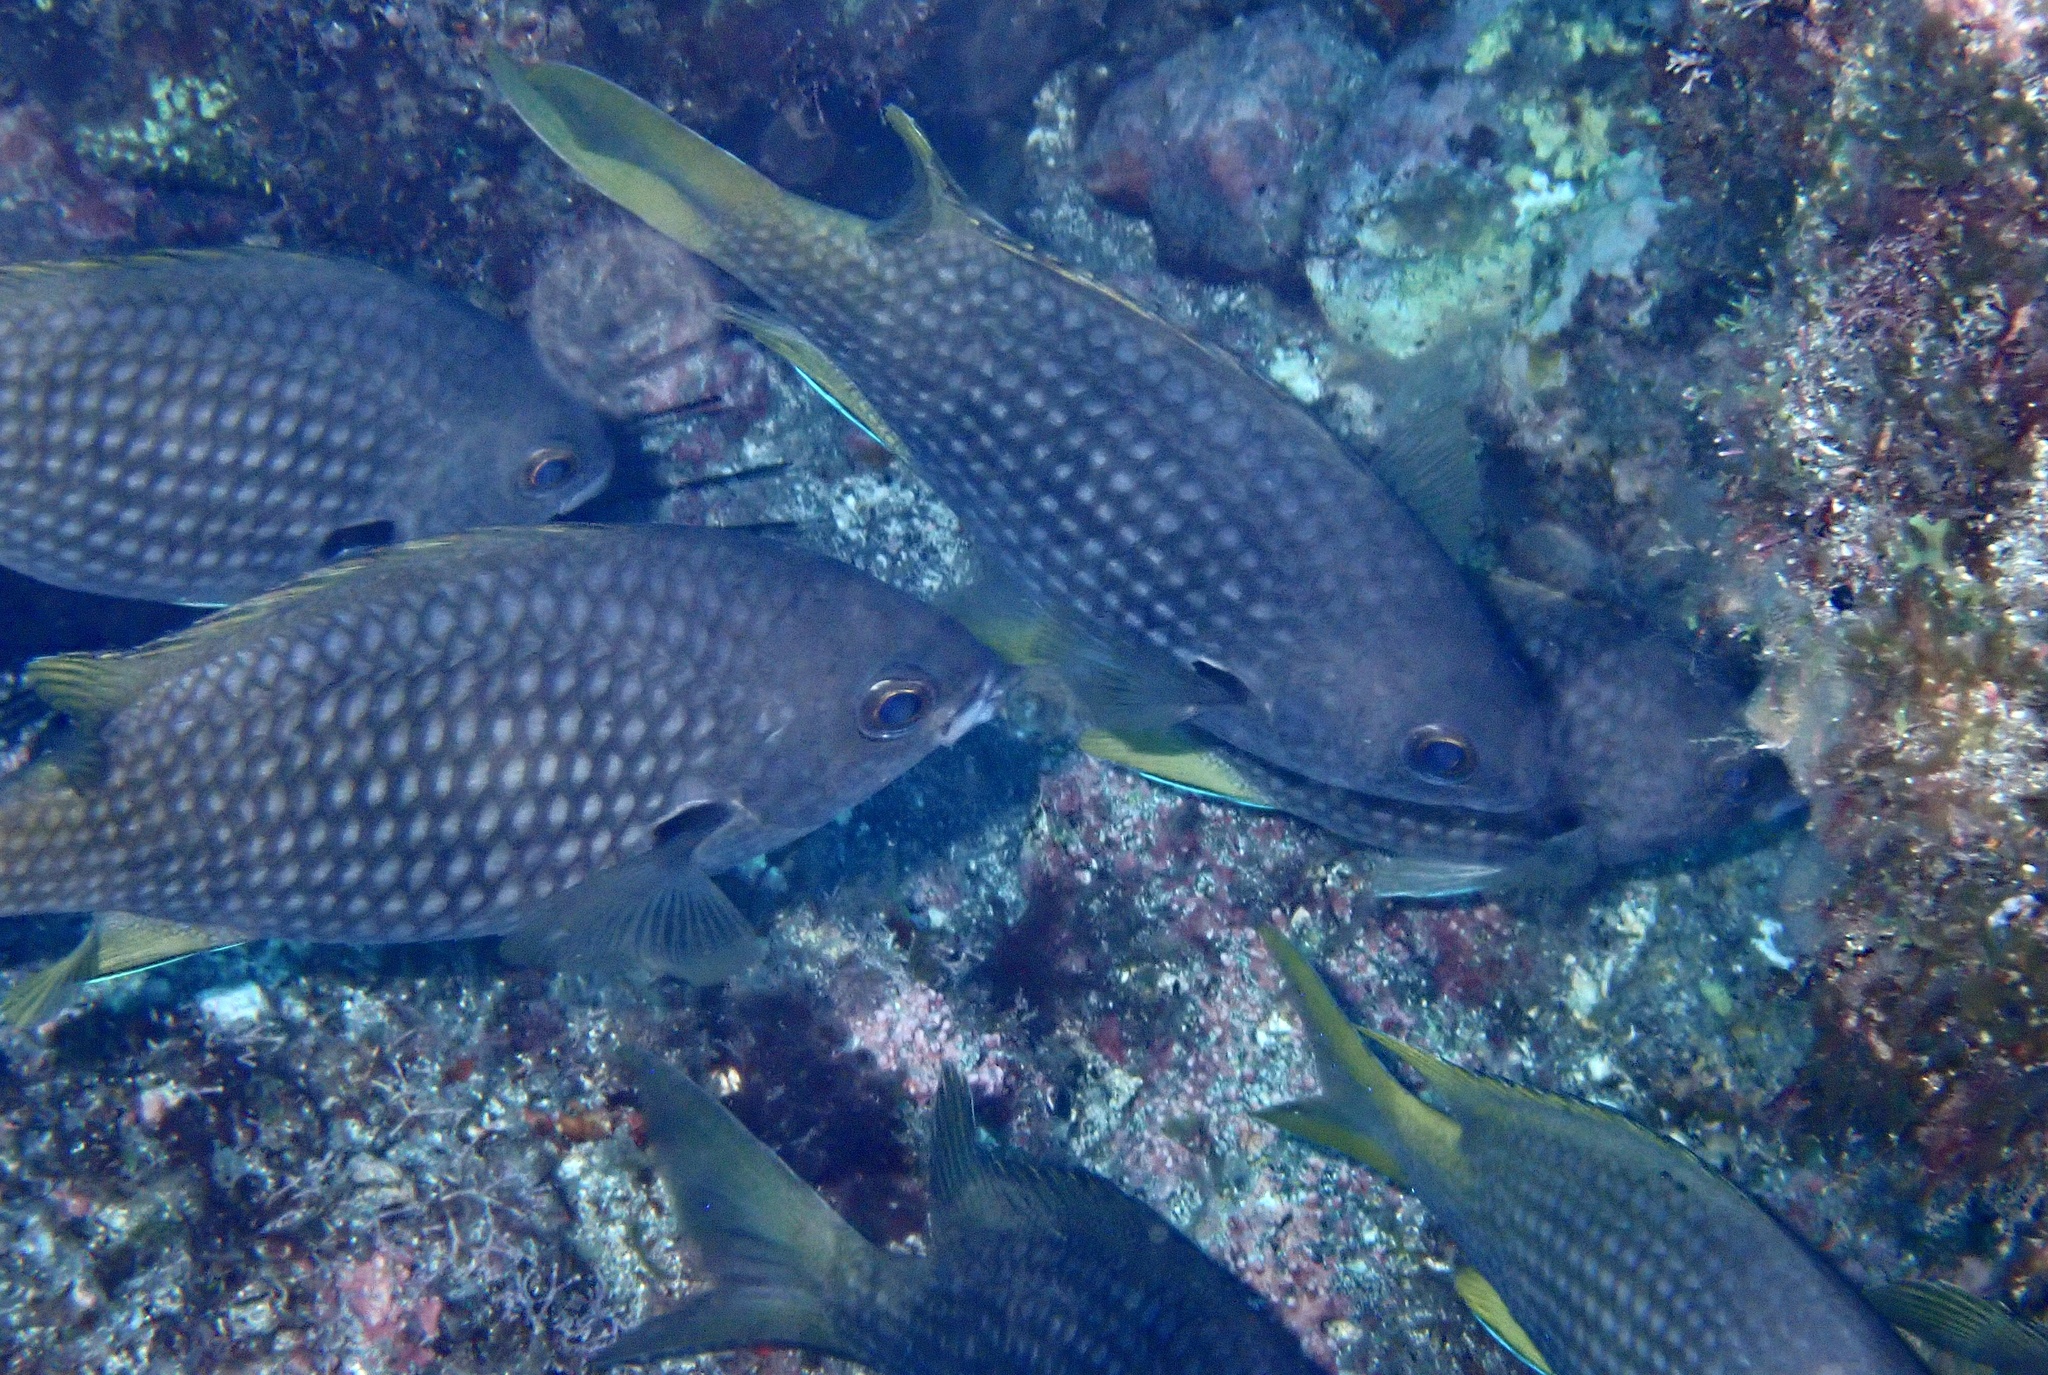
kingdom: Animalia
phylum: Chordata
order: Perciformes
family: Pomacentridae
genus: Chromis
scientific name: Chromis lubbocki
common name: Lubbock's chromis
